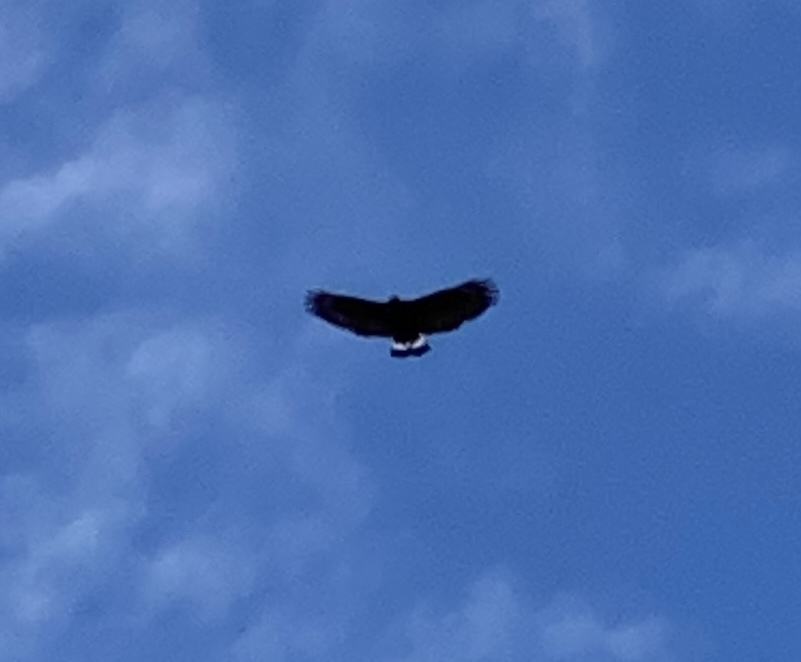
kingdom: Animalia
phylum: Chordata
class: Aves
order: Accipitriformes
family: Accipitridae
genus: Buteogallus
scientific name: Buteogallus anthracinus
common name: Common black hawk
